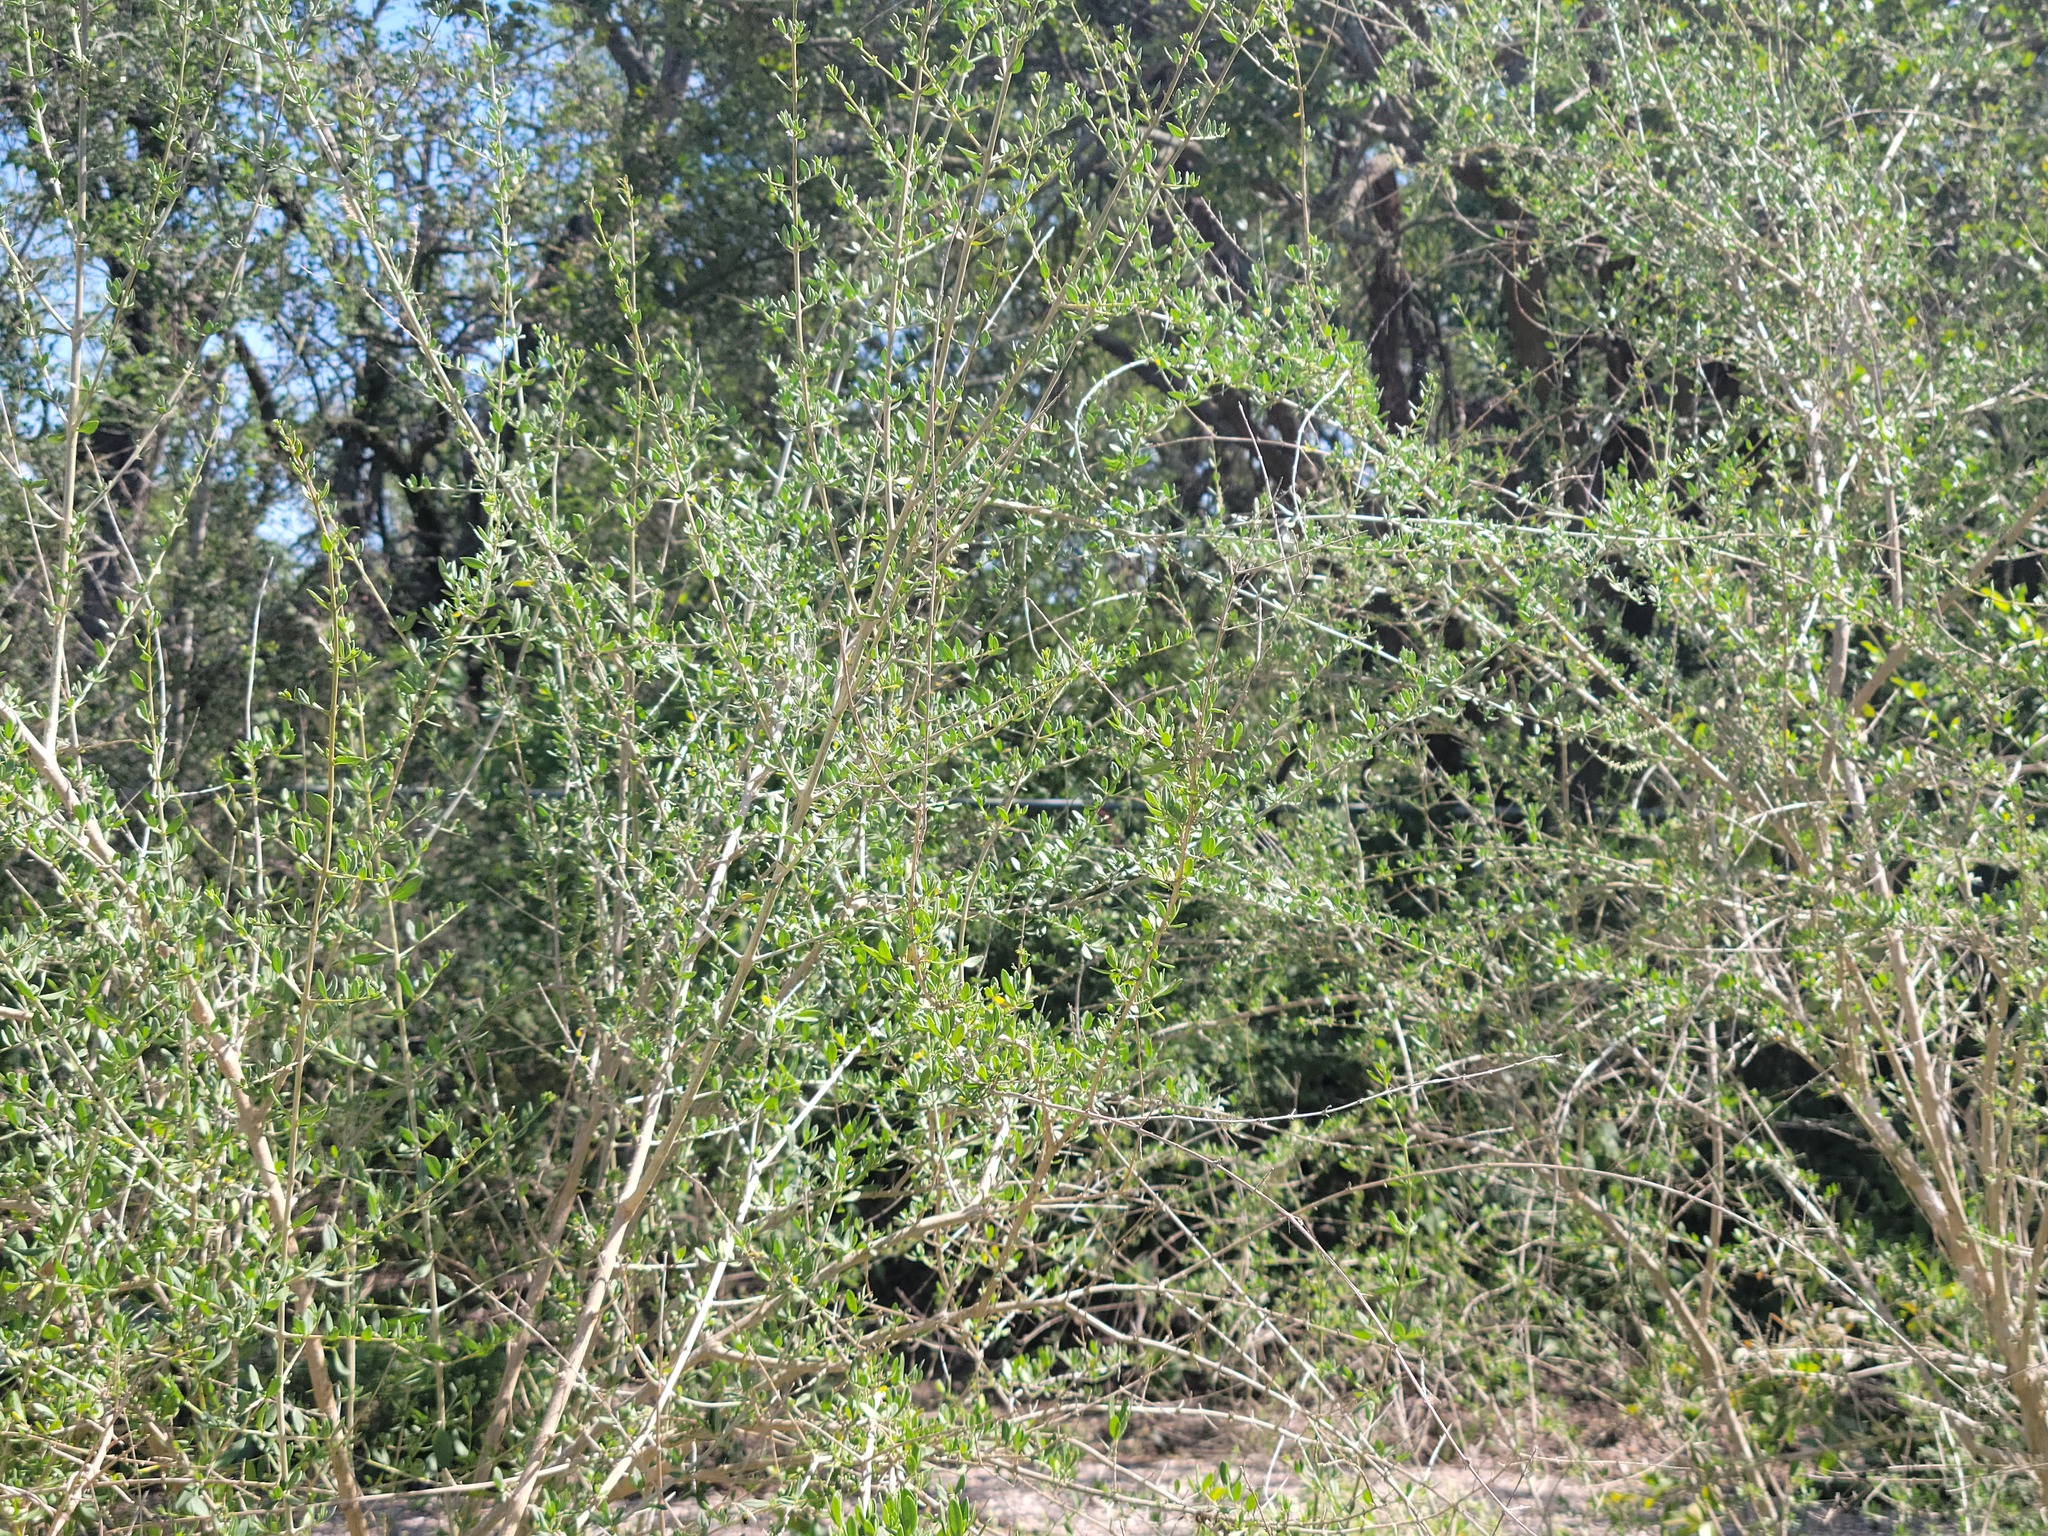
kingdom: Plantae
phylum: Tracheophyta
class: Magnoliopsida
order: Lamiales
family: Verbenaceae
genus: Aloysia
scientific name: Aloysia gratissima
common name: Common bee-brush
